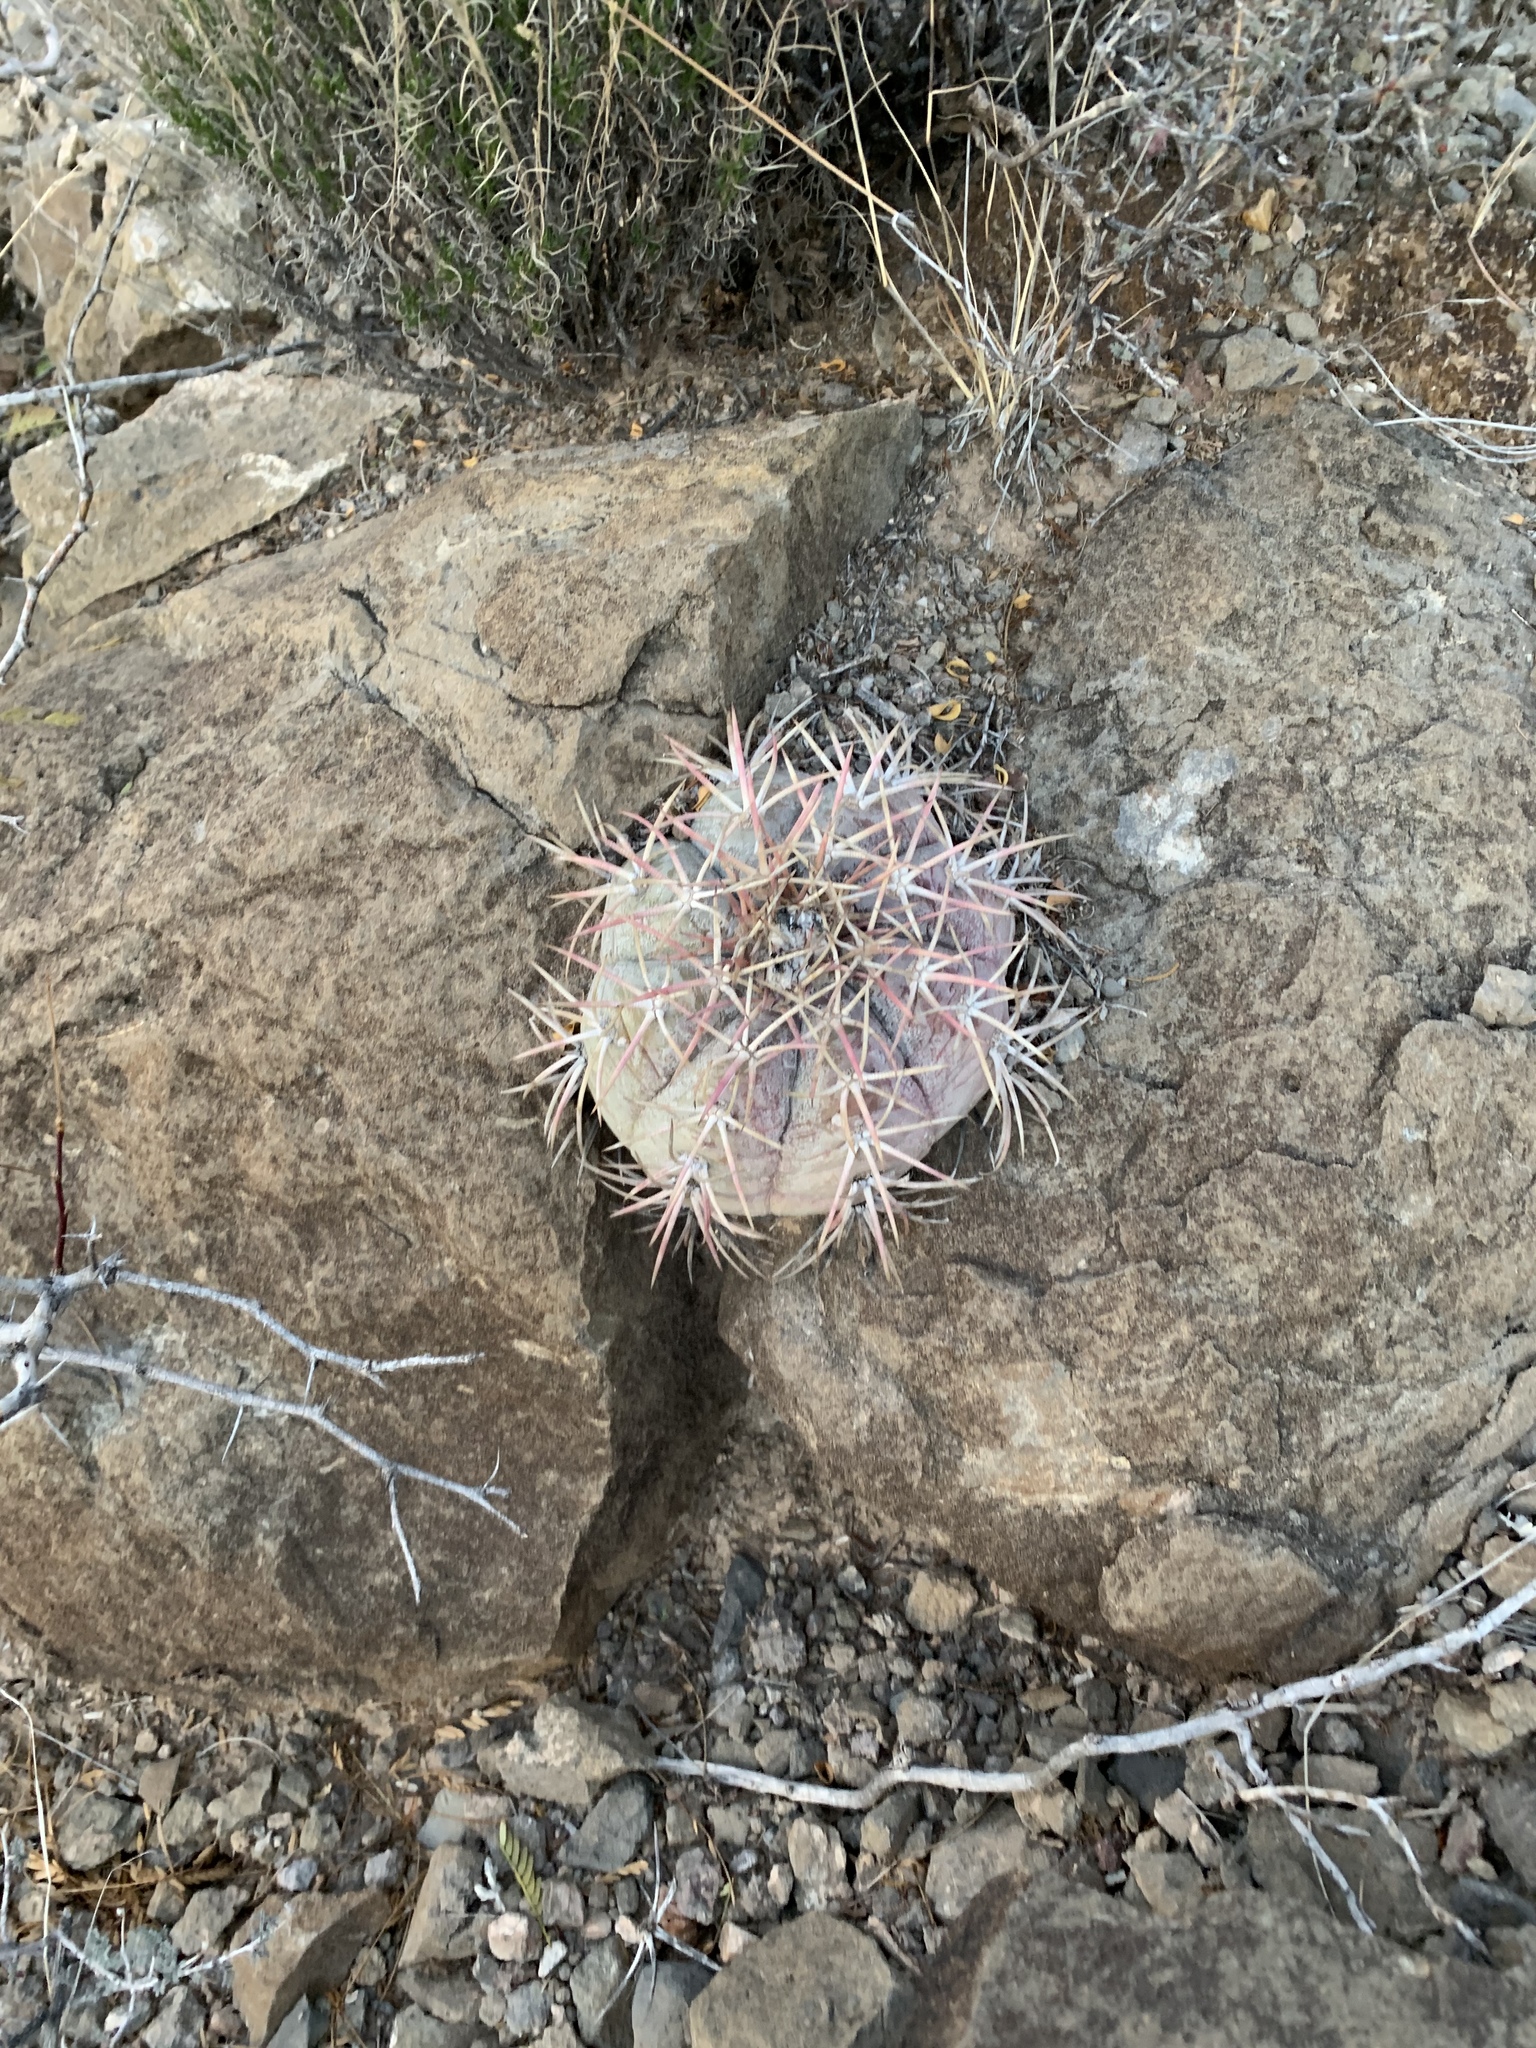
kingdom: Plantae
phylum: Tracheophyta
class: Magnoliopsida
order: Caryophyllales
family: Cactaceae
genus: Echinocactus
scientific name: Echinocactus horizonthalonius
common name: Devilshead
